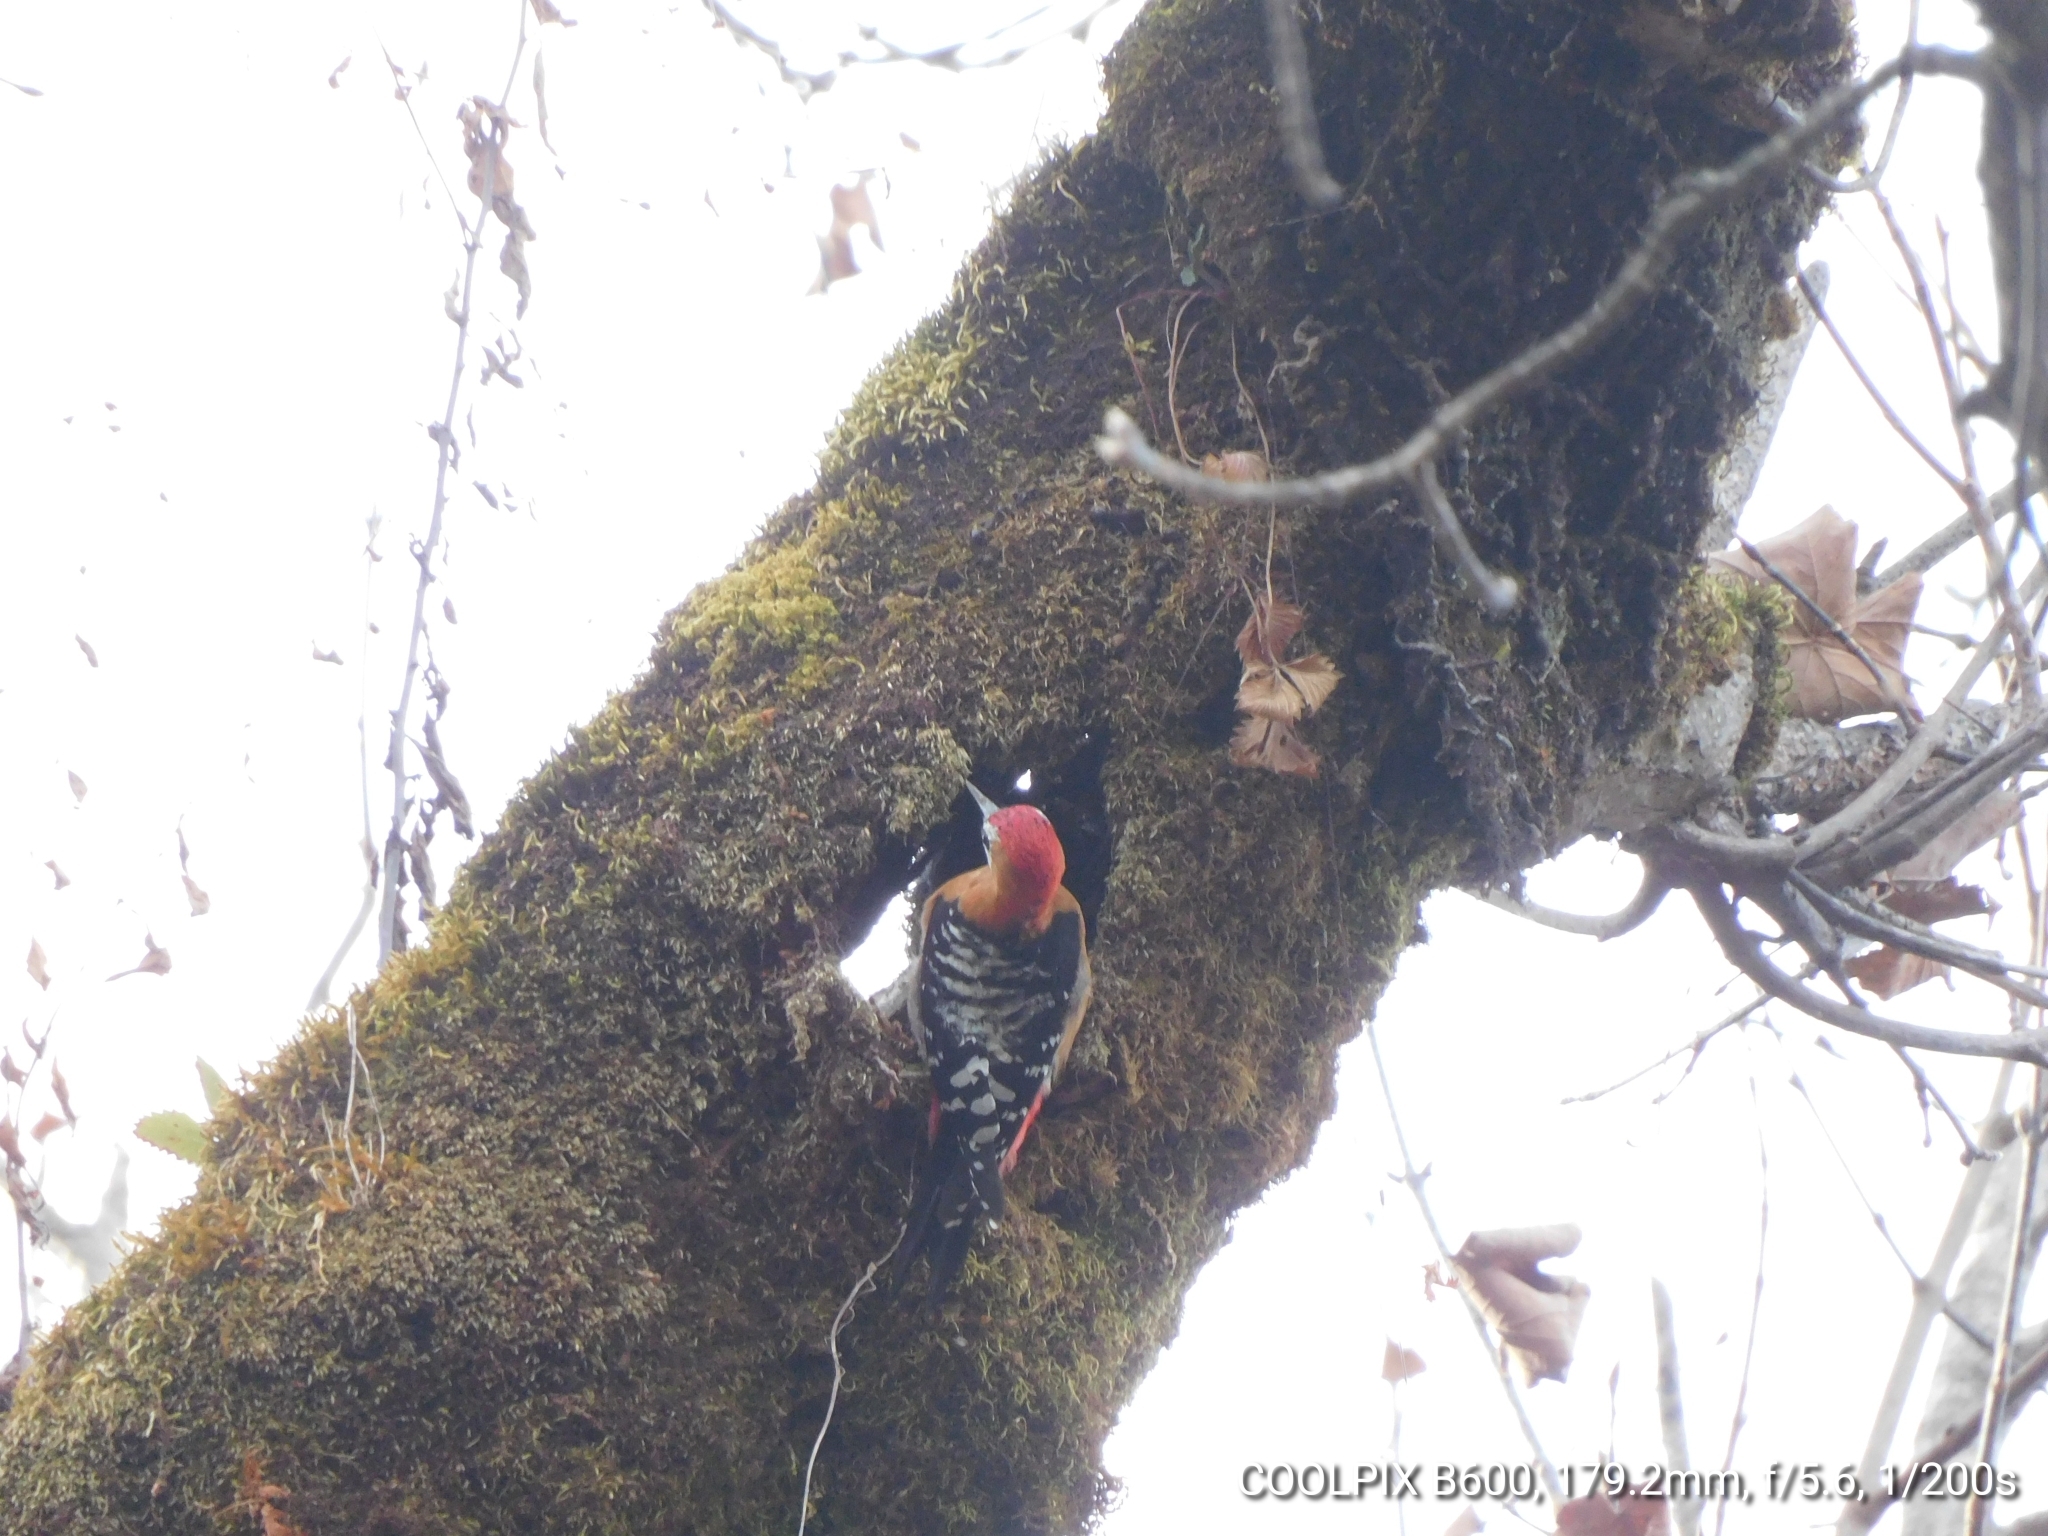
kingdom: Animalia
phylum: Chordata
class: Aves
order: Piciformes
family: Picidae
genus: Dendrocopos
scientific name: Dendrocopos hyperythrus
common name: Rufous-bellied woodpecker
